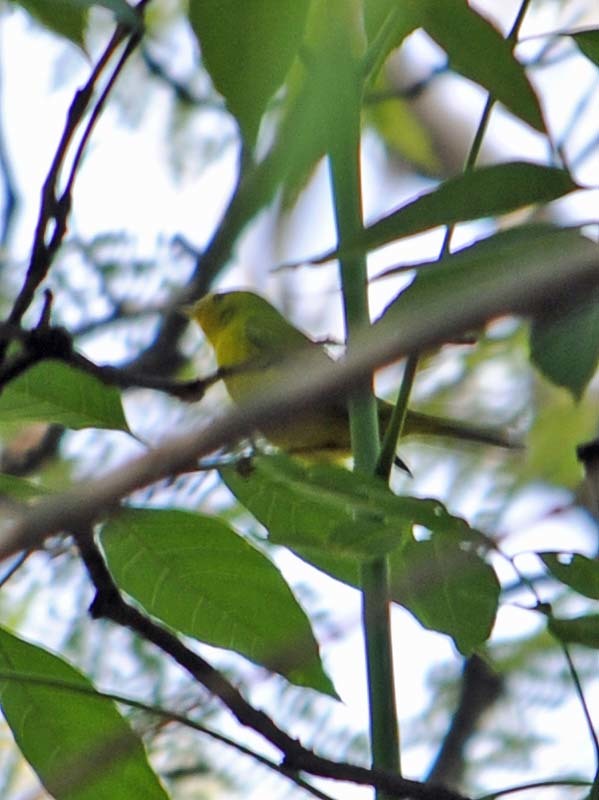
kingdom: Animalia
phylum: Chordata
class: Aves
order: Passeriformes
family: Parulidae
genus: Cardellina
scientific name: Cardellina pusilla
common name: Wilson's warbler
